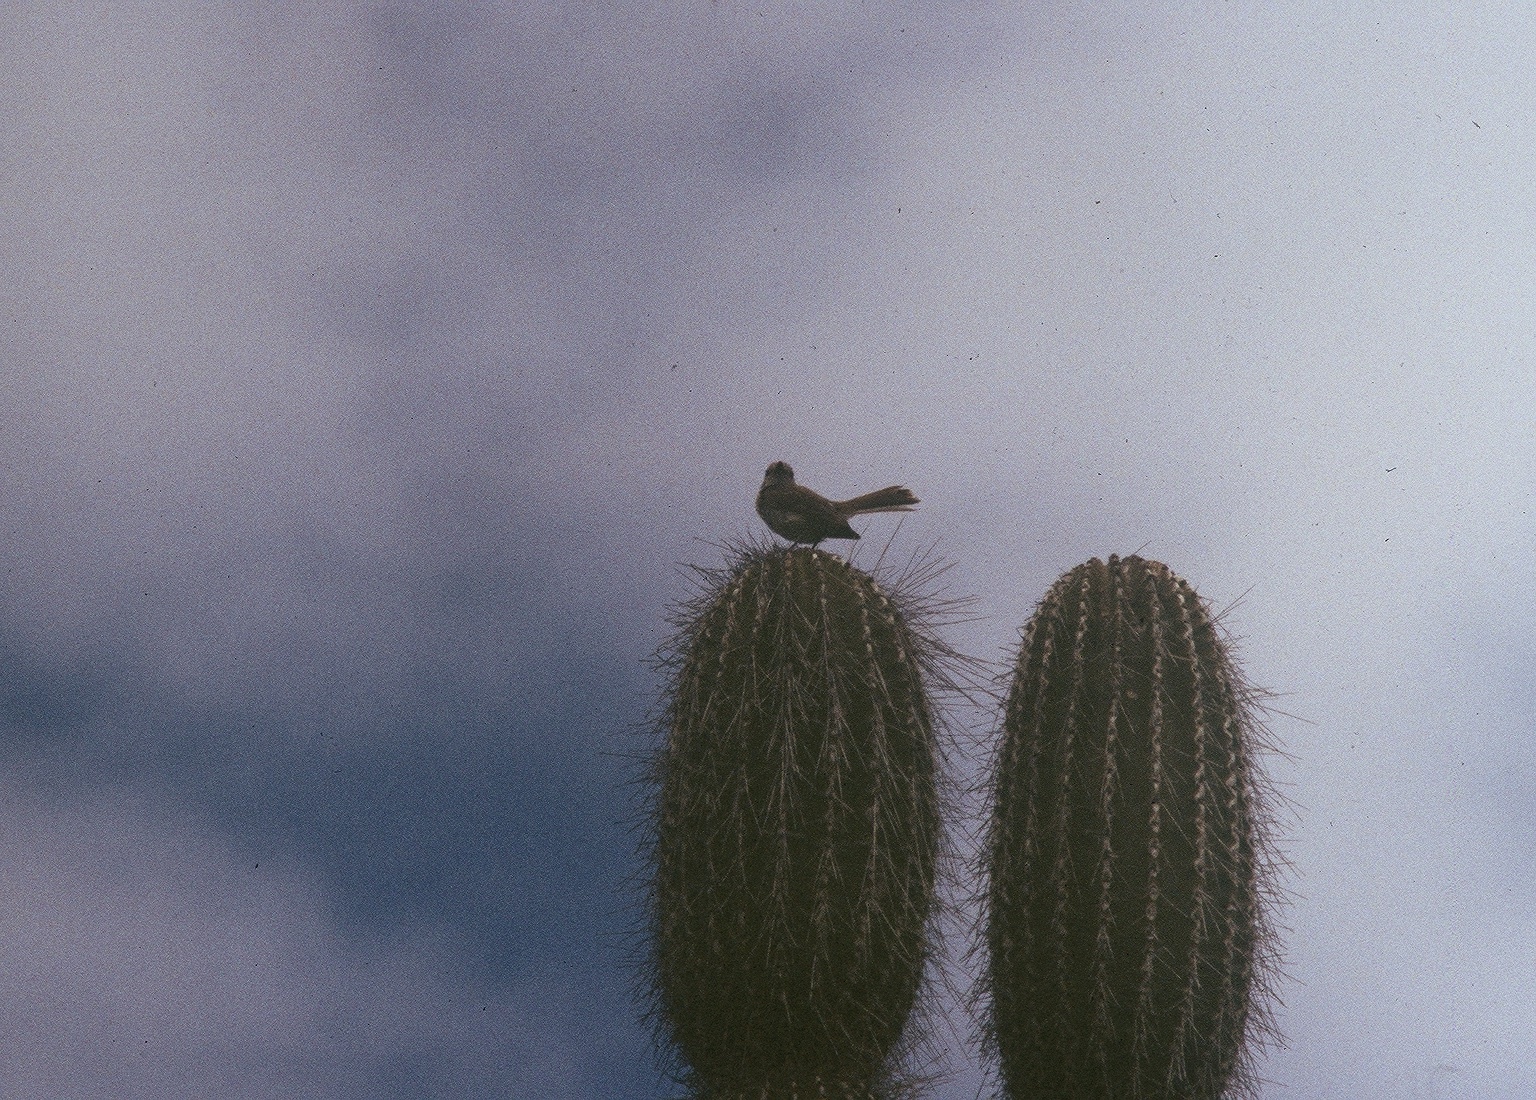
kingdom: Animalia
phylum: Chordata
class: Aves
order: Passeriformes
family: Mimidae
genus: Mimus
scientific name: Mimus parvulus
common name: Galapagos mockingbird
